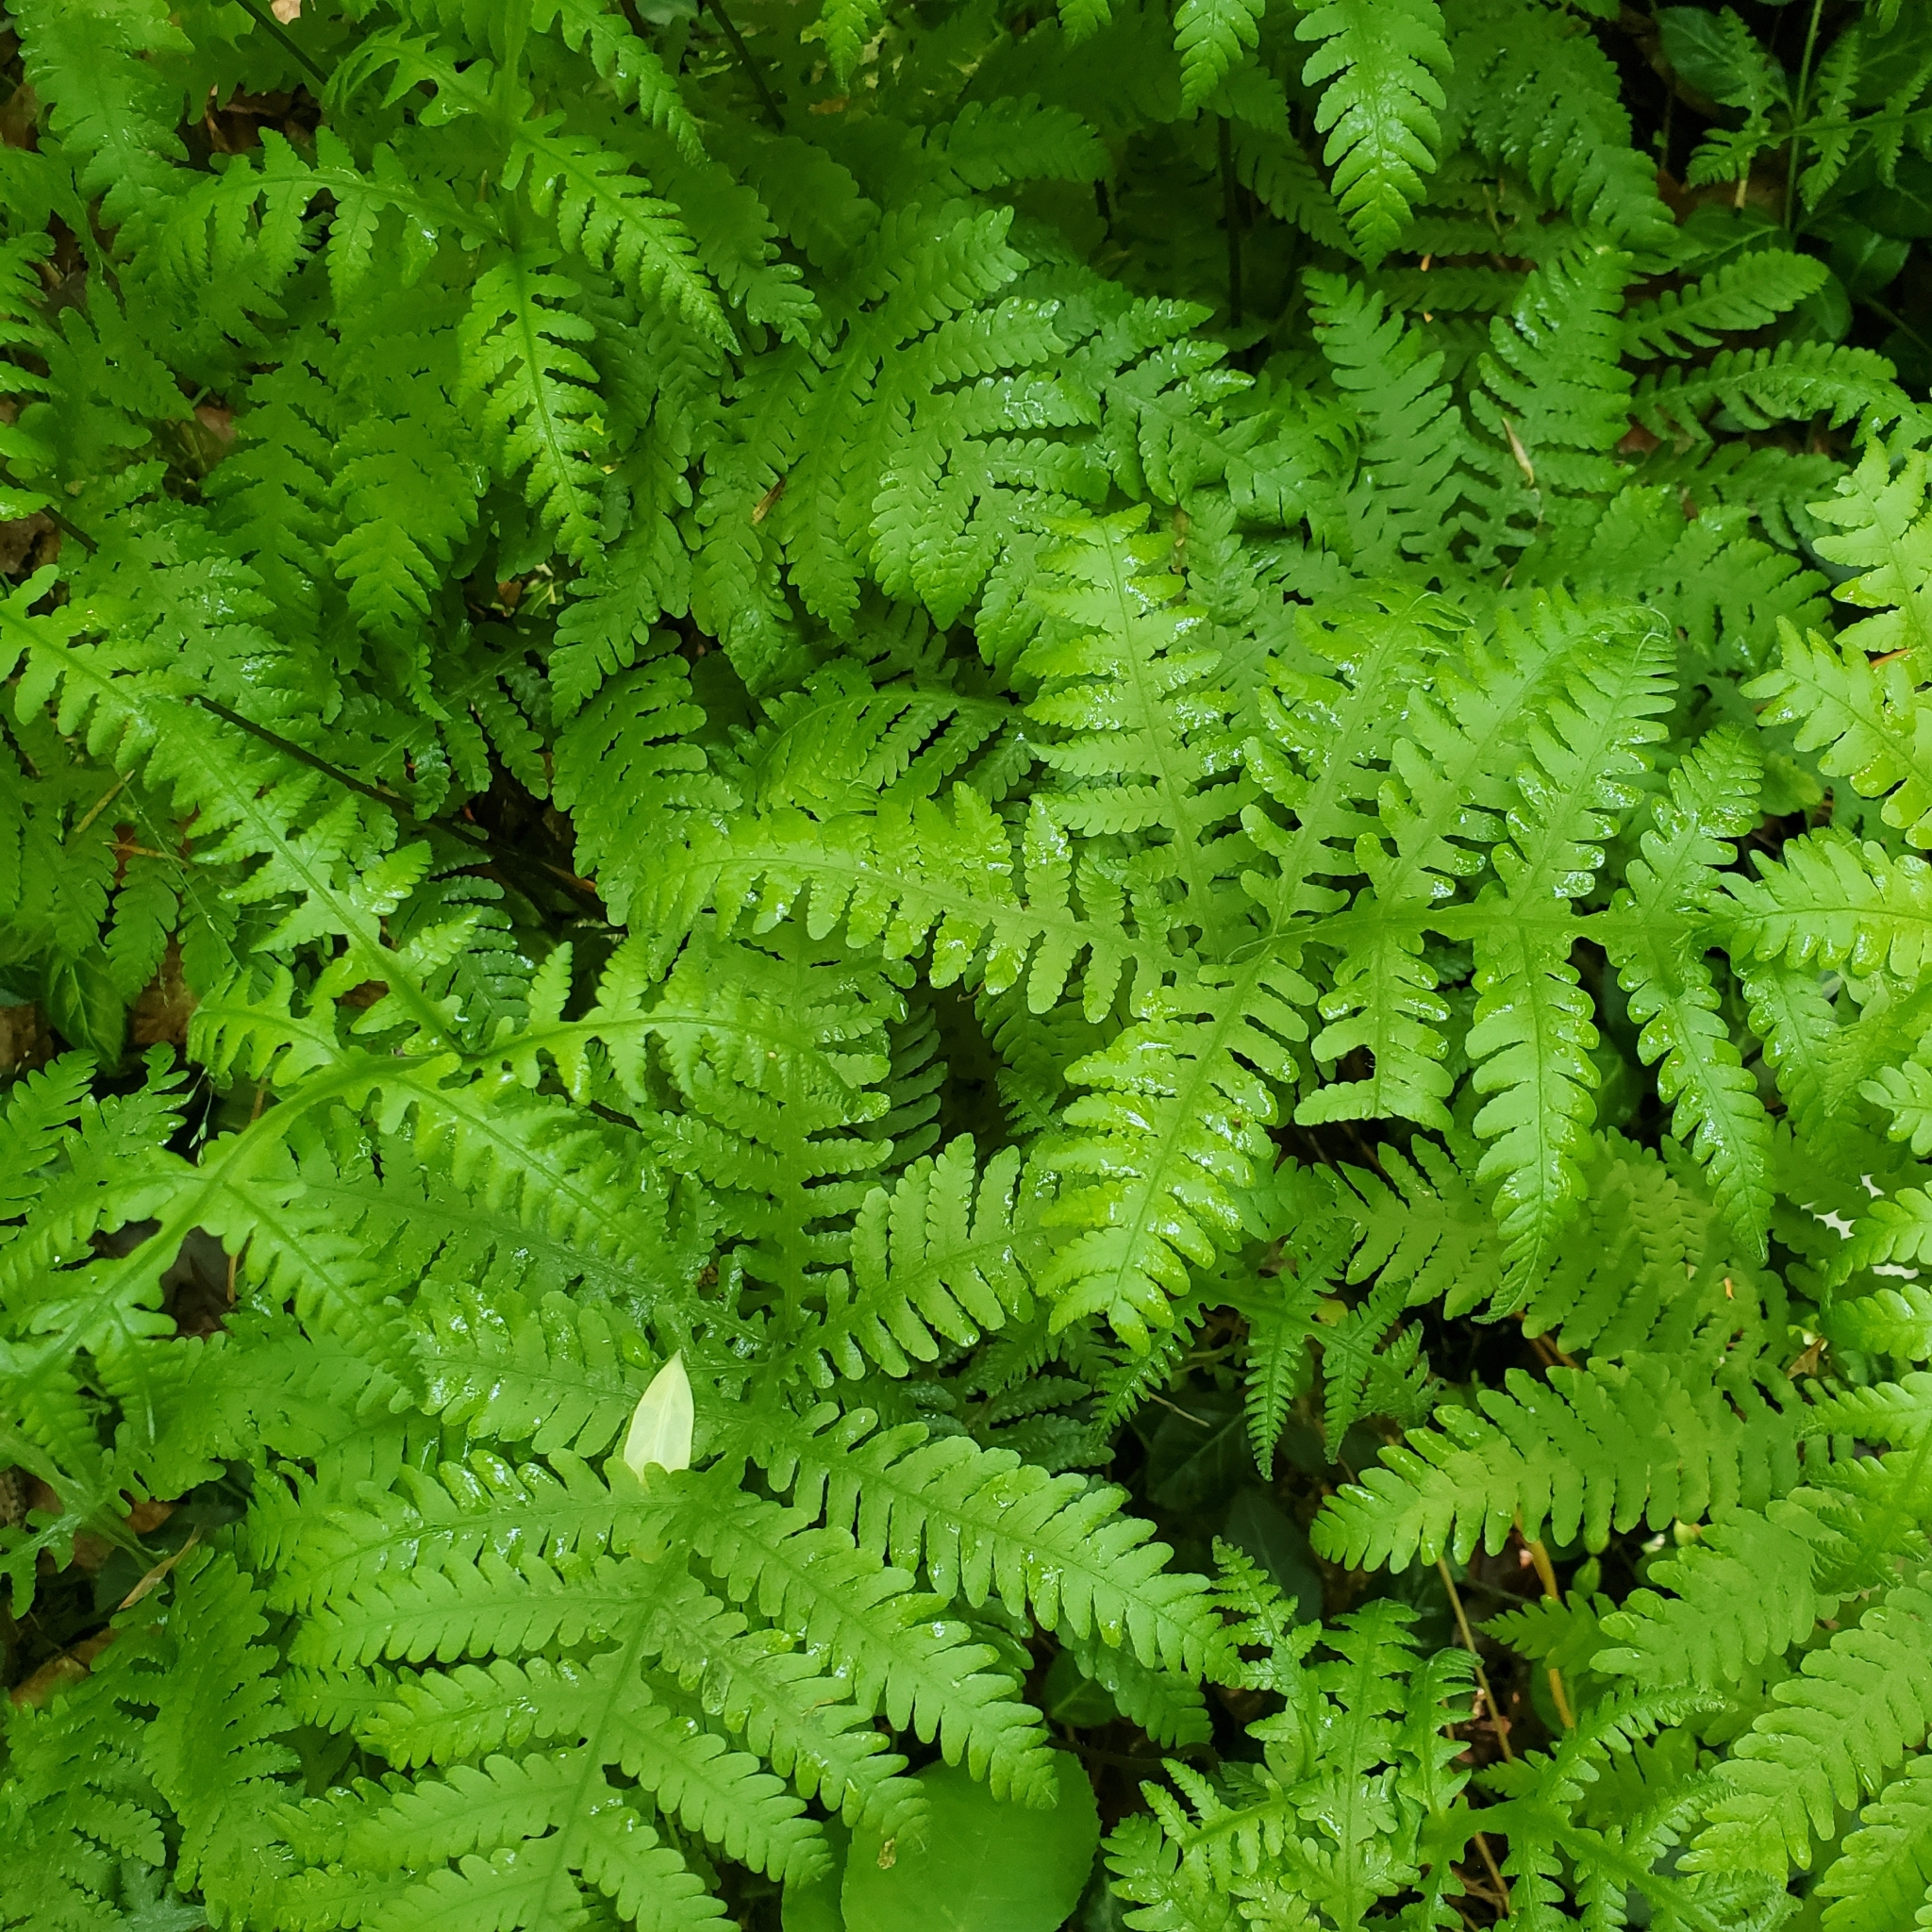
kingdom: Plantae
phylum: Tracheophyta
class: Polypodiopsida
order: Polypodiales
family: Thelypteridaceae
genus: Phegopteris
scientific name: Phegopteris hexagonoptera
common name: Broad beech fern
